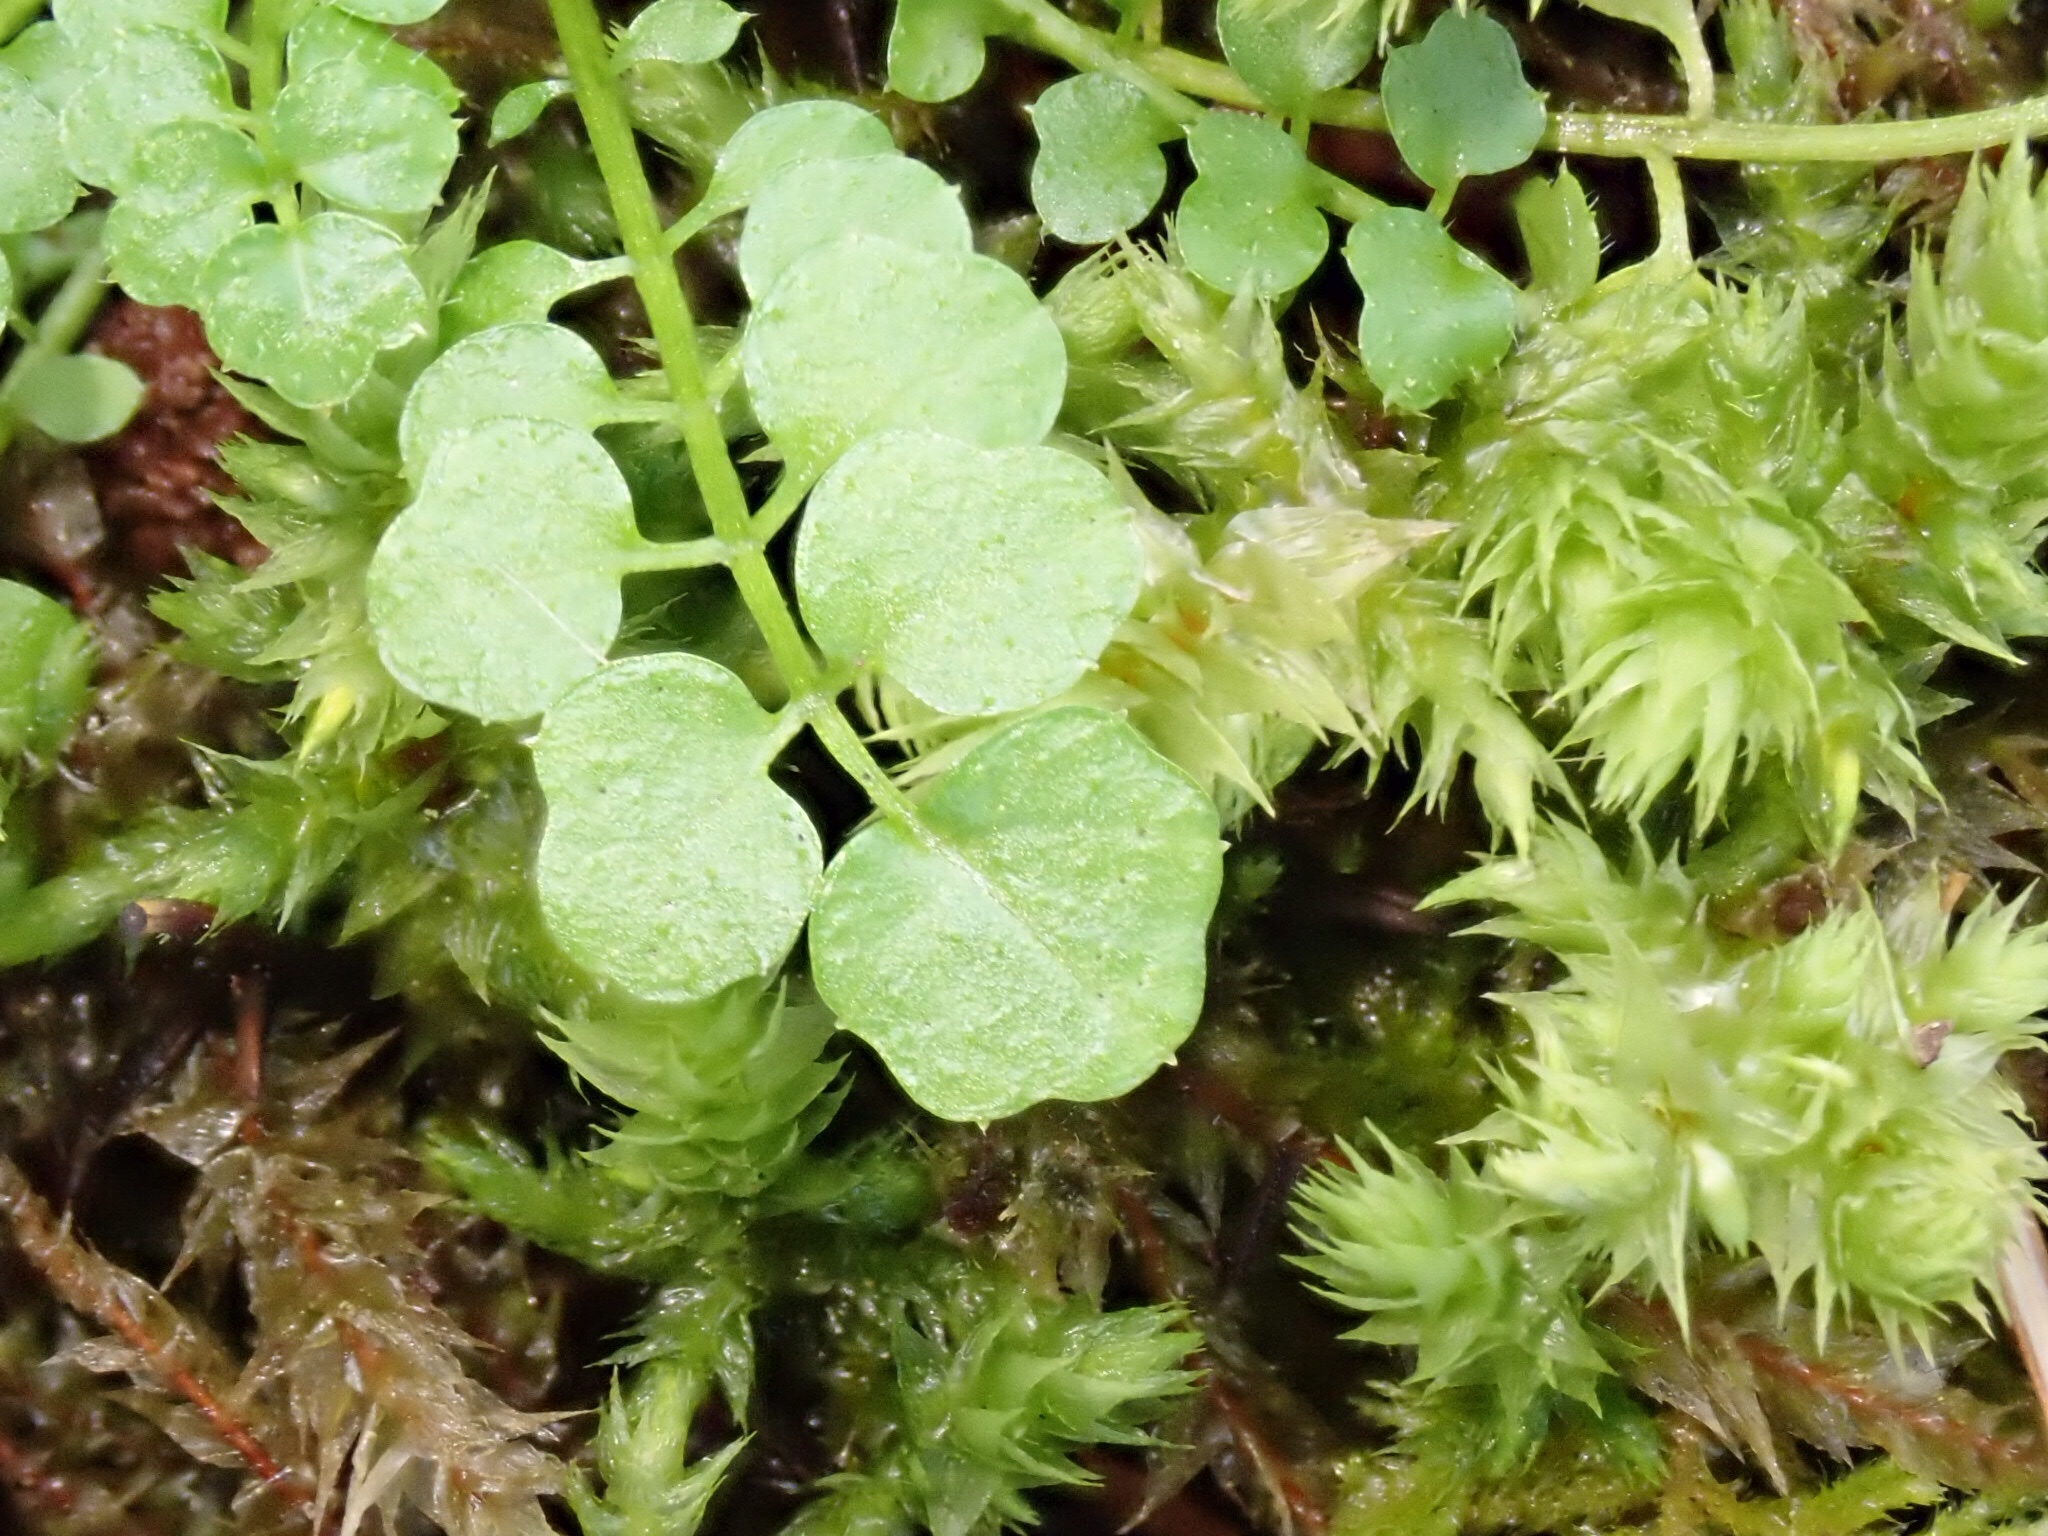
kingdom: Plantae
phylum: Tracheophyta
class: Magnoliopsida
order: Brassicales
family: Brassicaceae
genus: Cardamine
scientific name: Cardamine oligosperma
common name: Idaho bittercress
